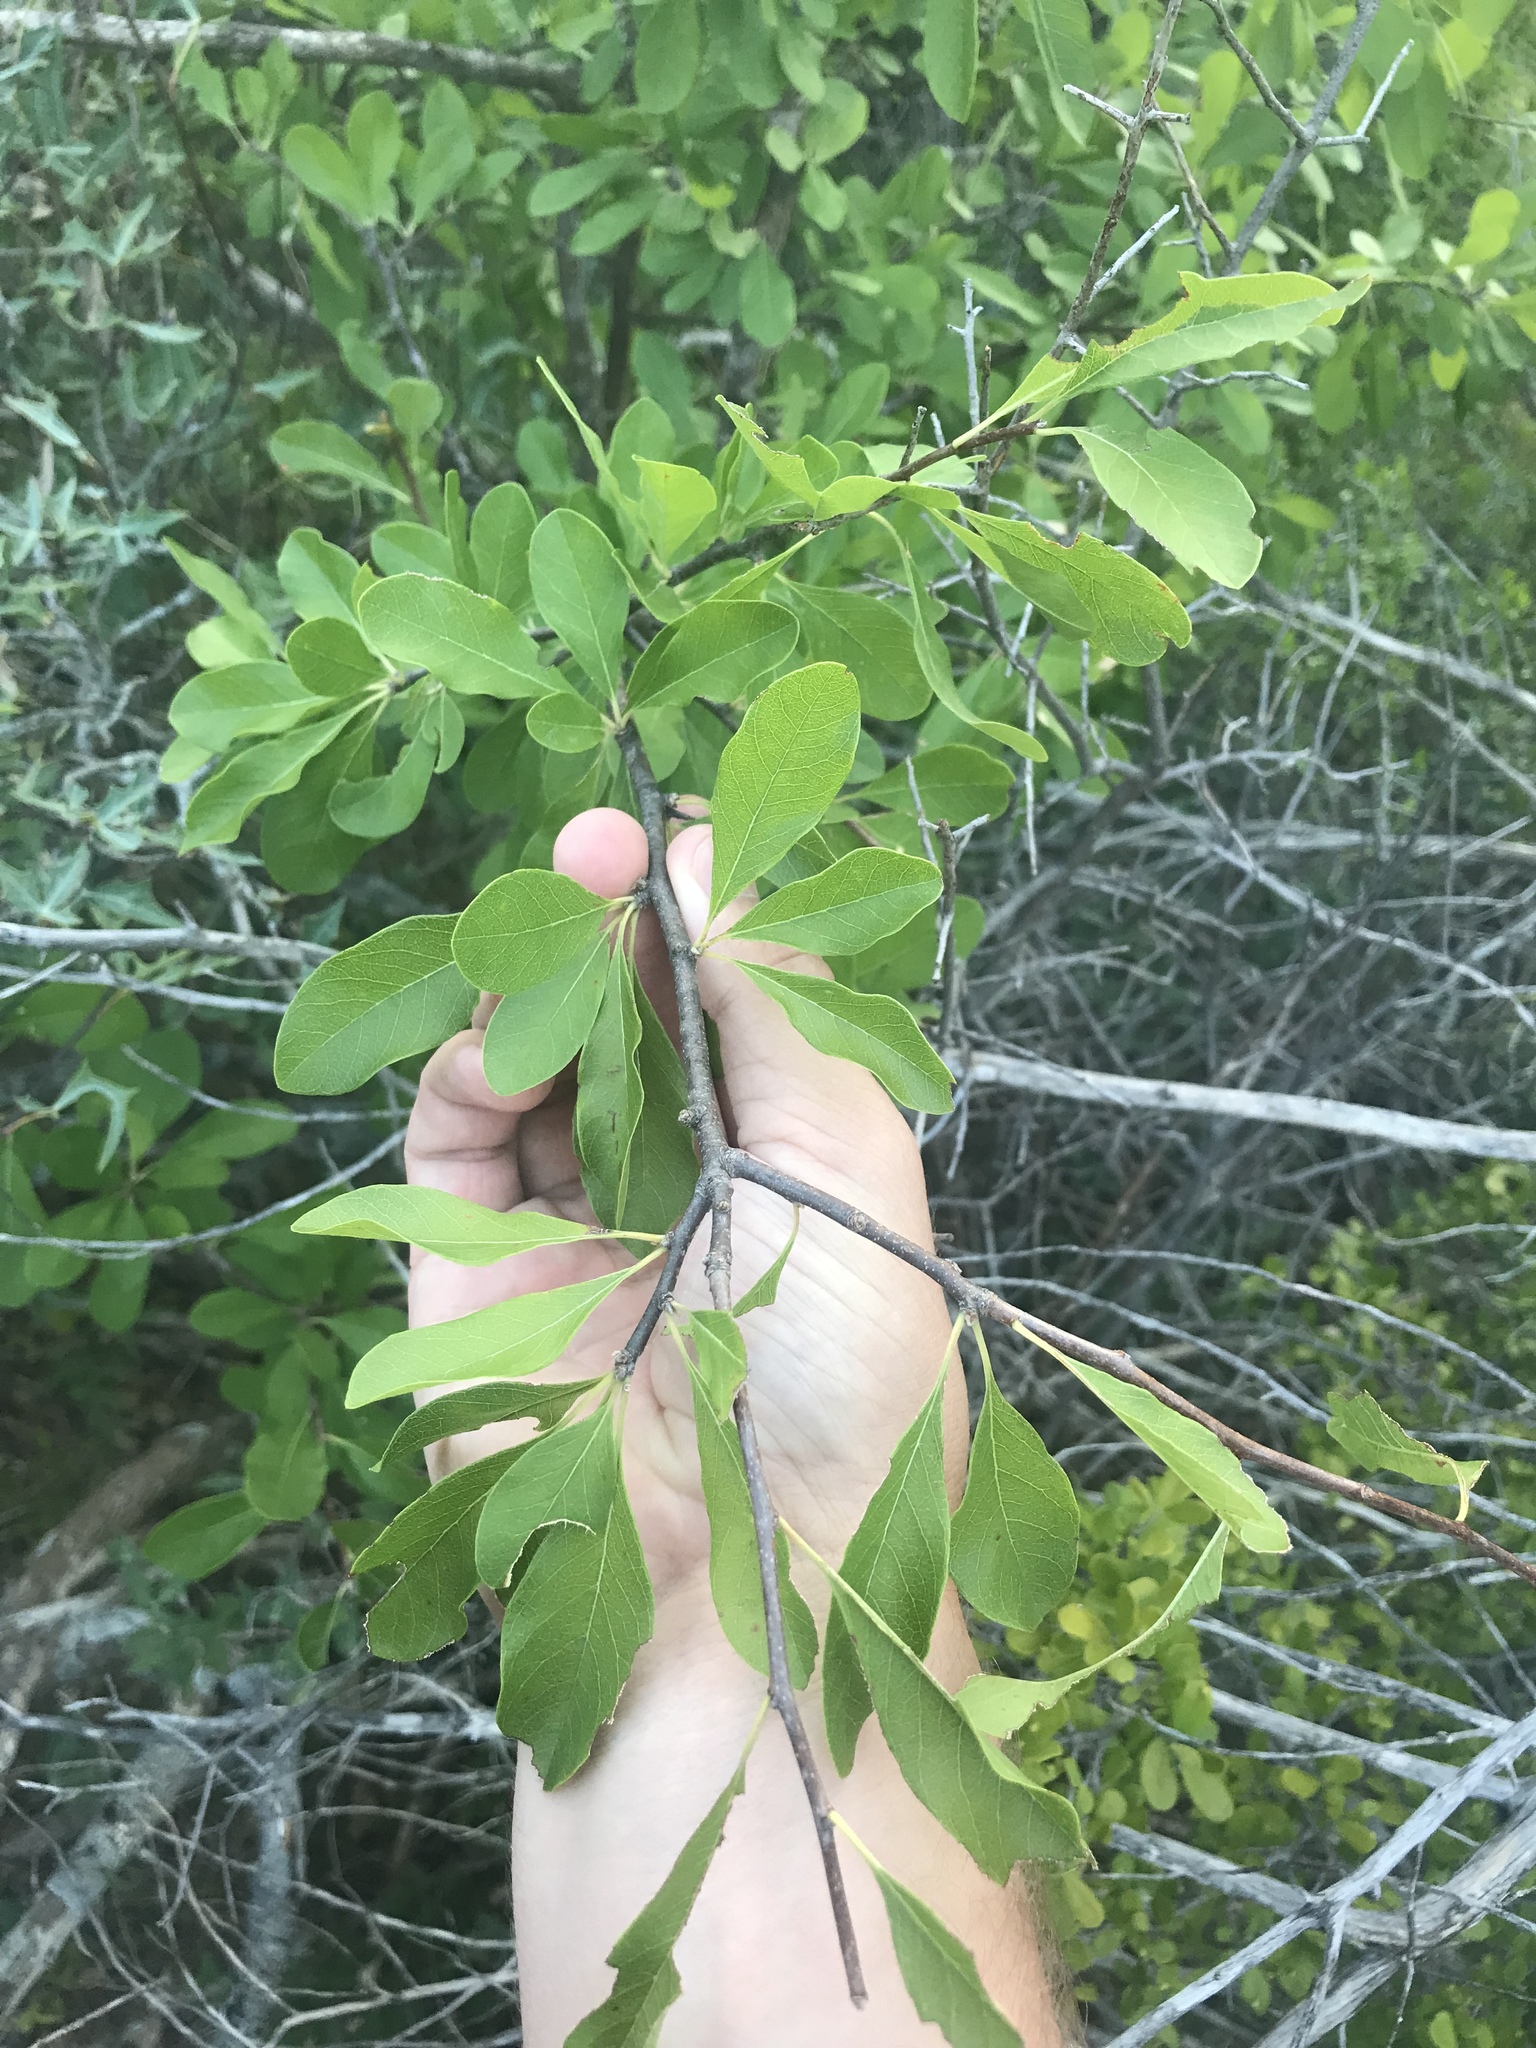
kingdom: Plantae
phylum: Tracheophyta
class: Magnoliopsida
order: Ericales
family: Sapotaceae
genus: Sideroxylon
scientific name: Sideroxylon lanuginosum
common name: Chittamwood
